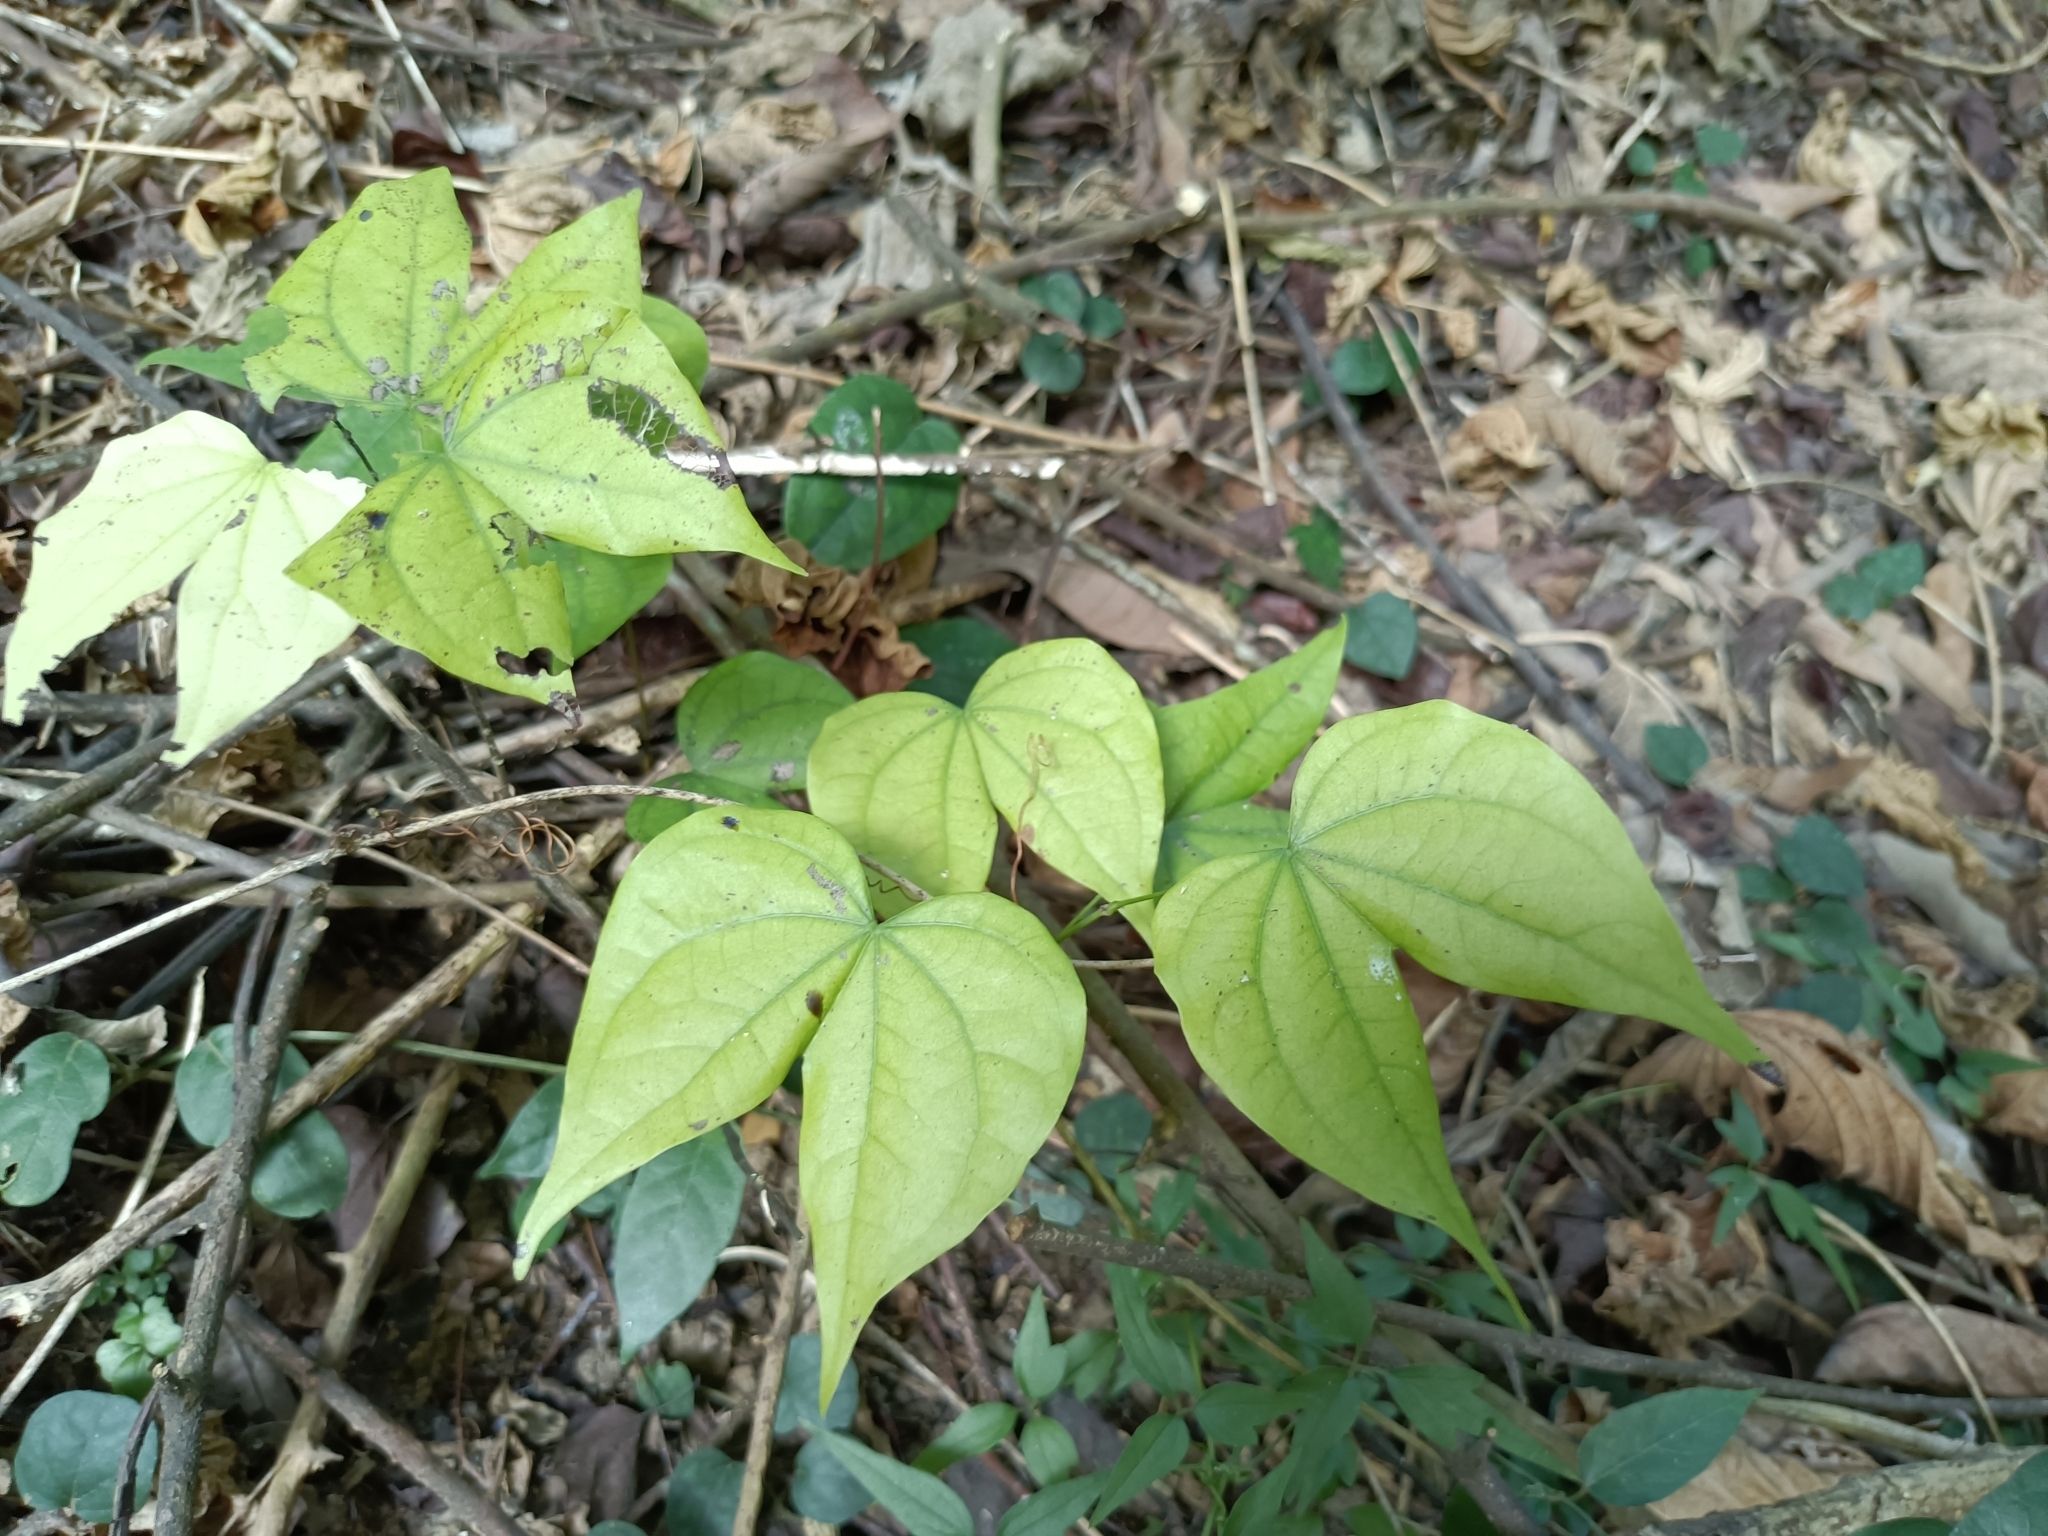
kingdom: Plantae
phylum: Tracheophyta
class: Magnoliopsida
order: Fabales
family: Fabaceae
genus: Phanera
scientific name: Phanera championii
